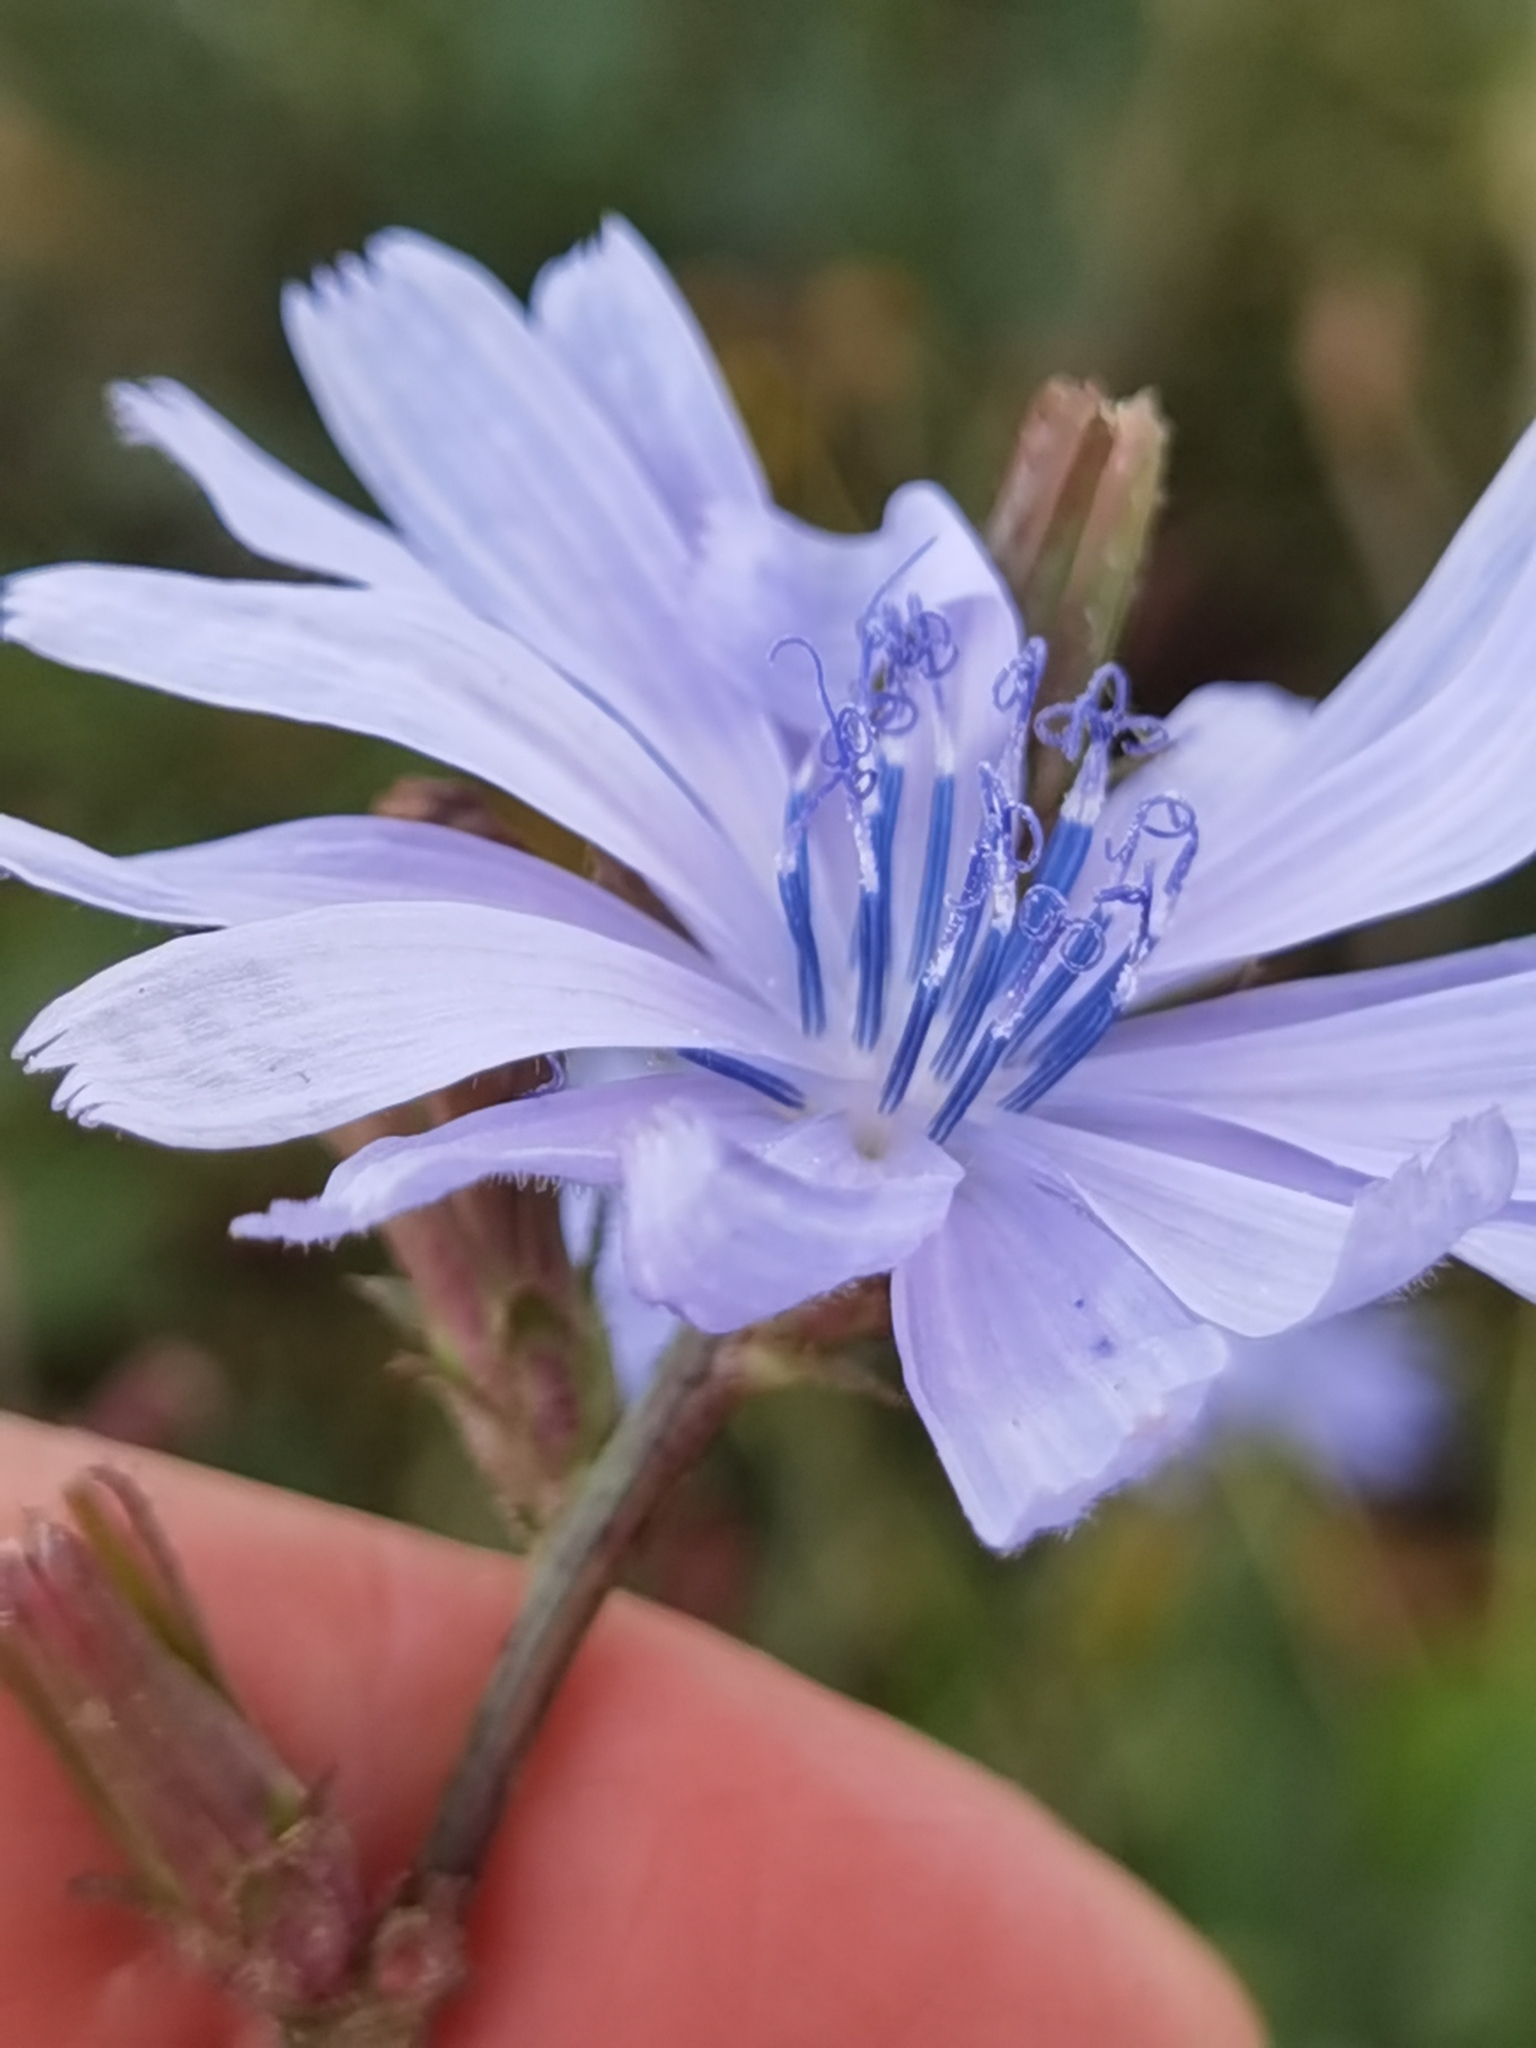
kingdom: Plantae
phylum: Tracheophyta
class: Magnoliopsida
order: Asterales
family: Asteraceae
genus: Cichorium
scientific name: Cichorium intybus
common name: Chicory
